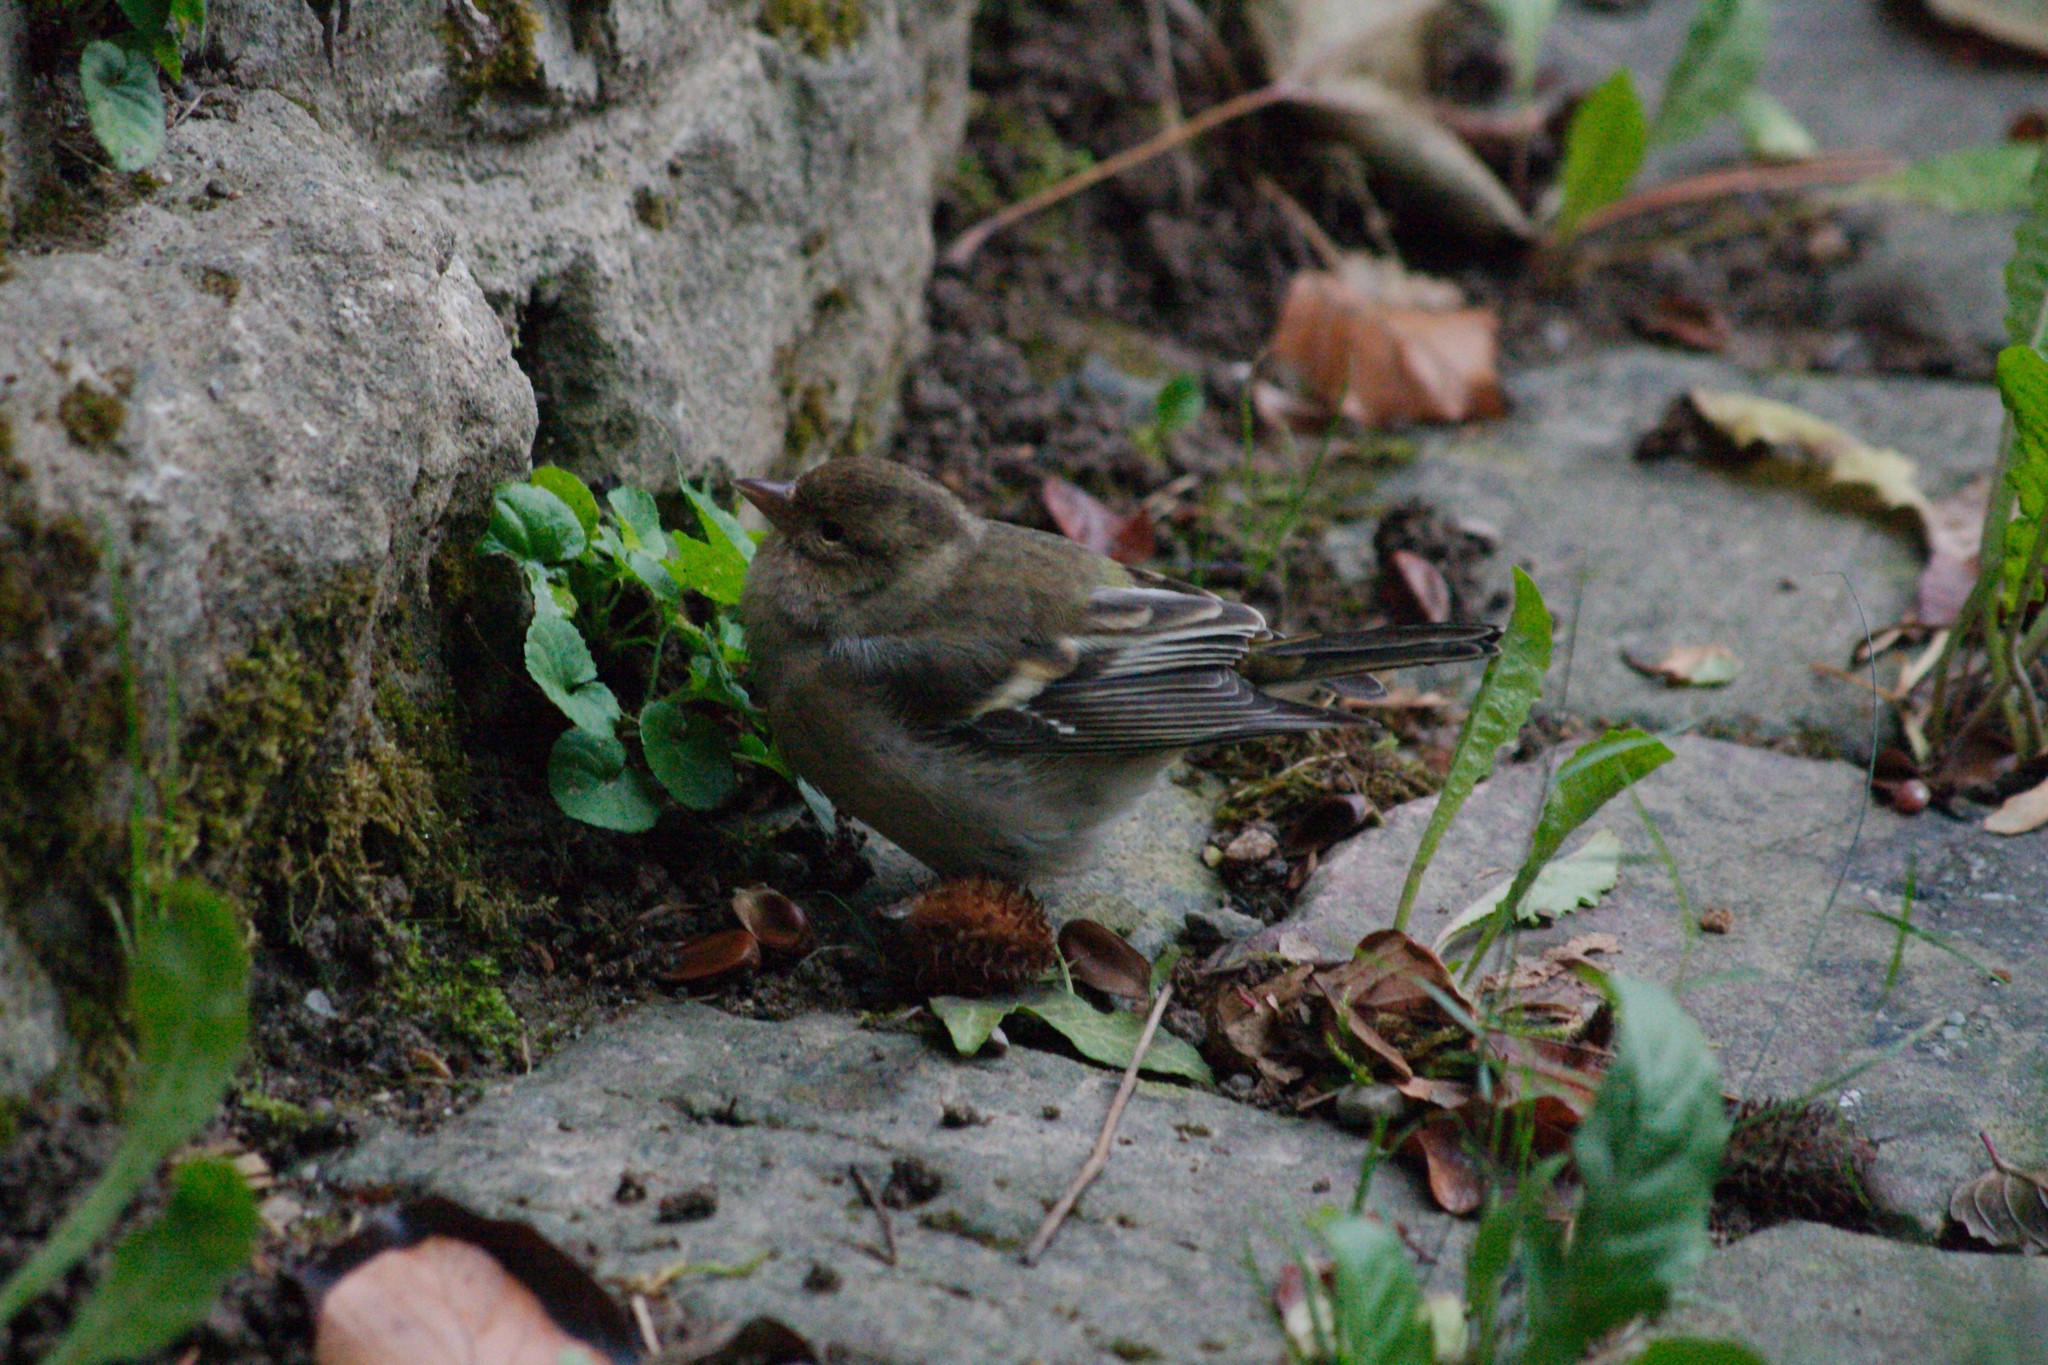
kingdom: Animalia
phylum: Chordata
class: Aves
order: Passeriformes
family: Fringillidae
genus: Fringilla
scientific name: Fringilla coelebs
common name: Common chaffinch
